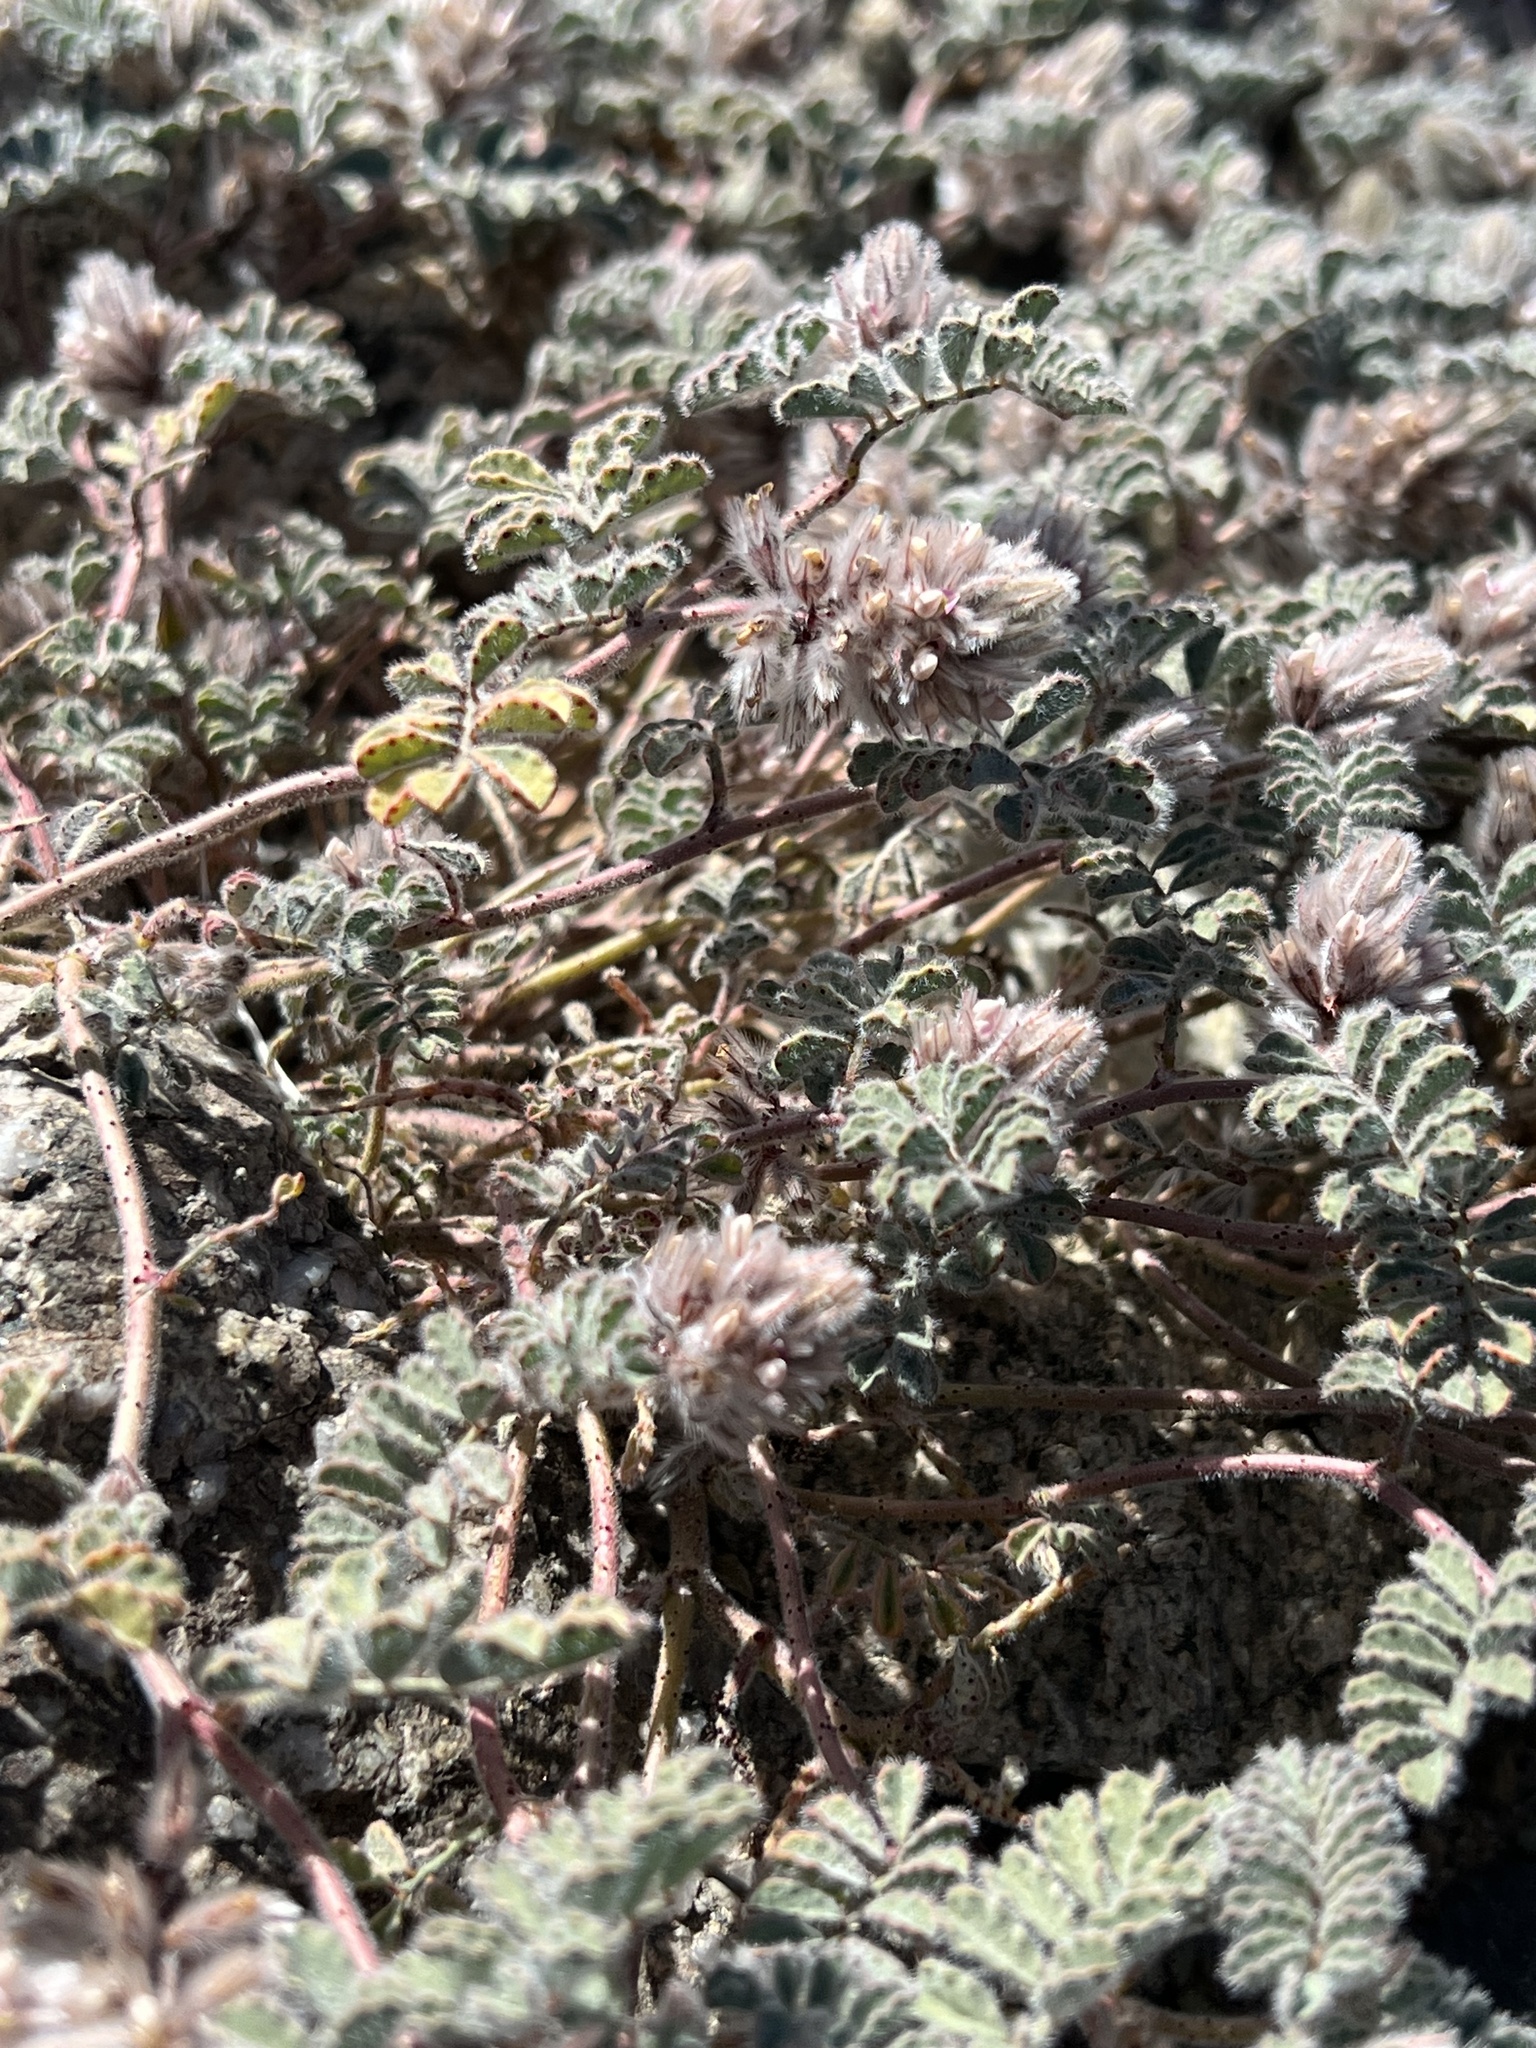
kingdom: Plantae
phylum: Tracheophyta
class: Magnoliopsida
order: Fabales
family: Fabaceae
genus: Dalea
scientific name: Dalea mollissima
